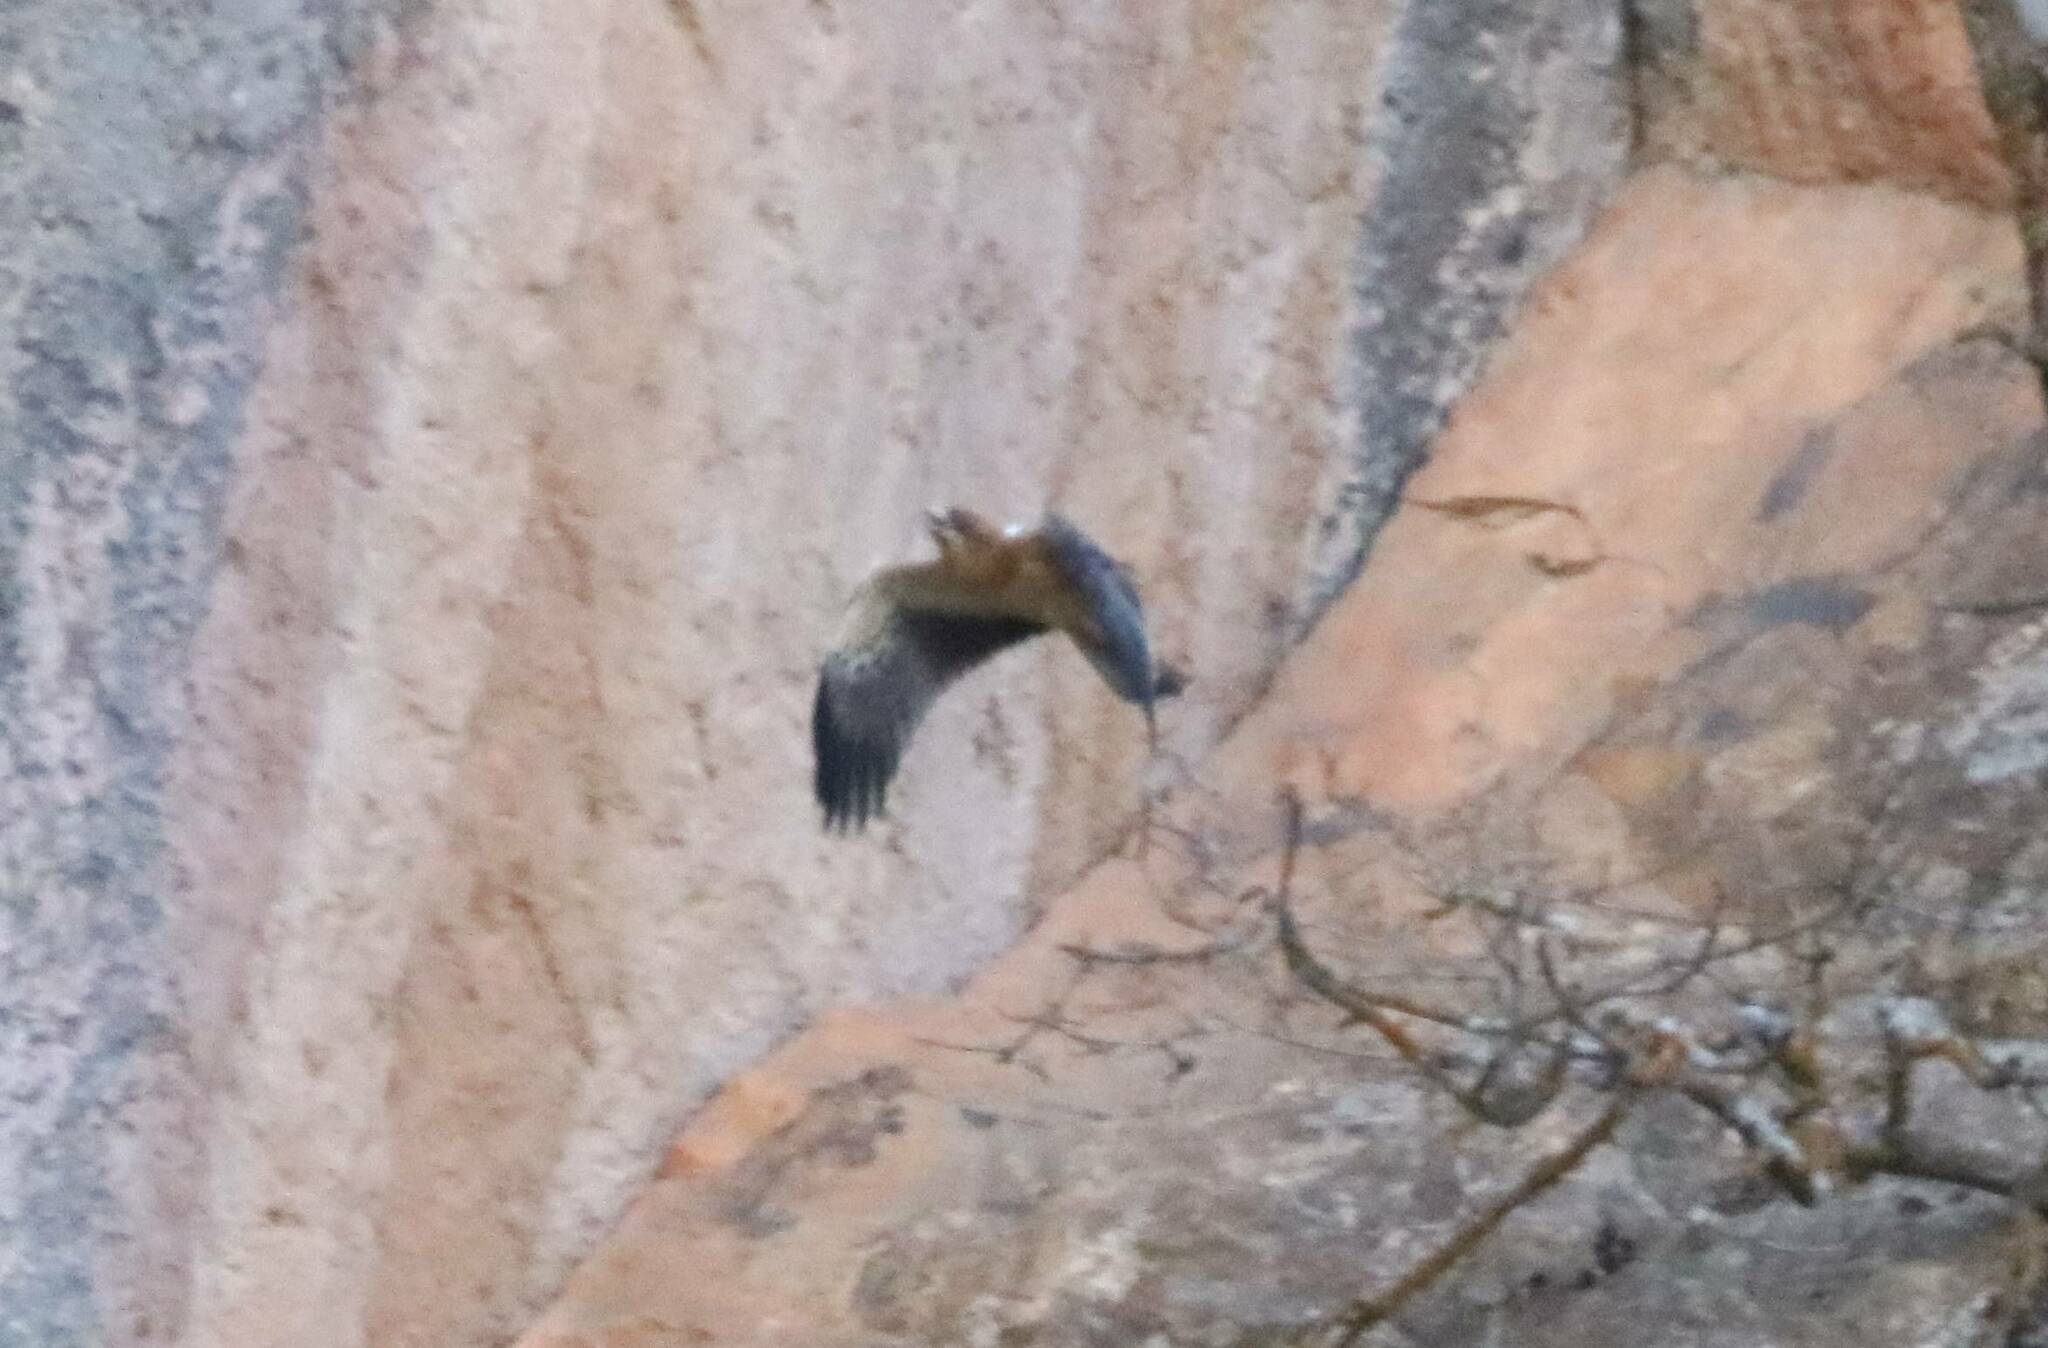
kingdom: Animalia
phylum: Chordata
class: Aves
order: Accipitriformes
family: Accipitridae
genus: Hieraaetus
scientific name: Hieraaetus pennatus
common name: Booted eagle
